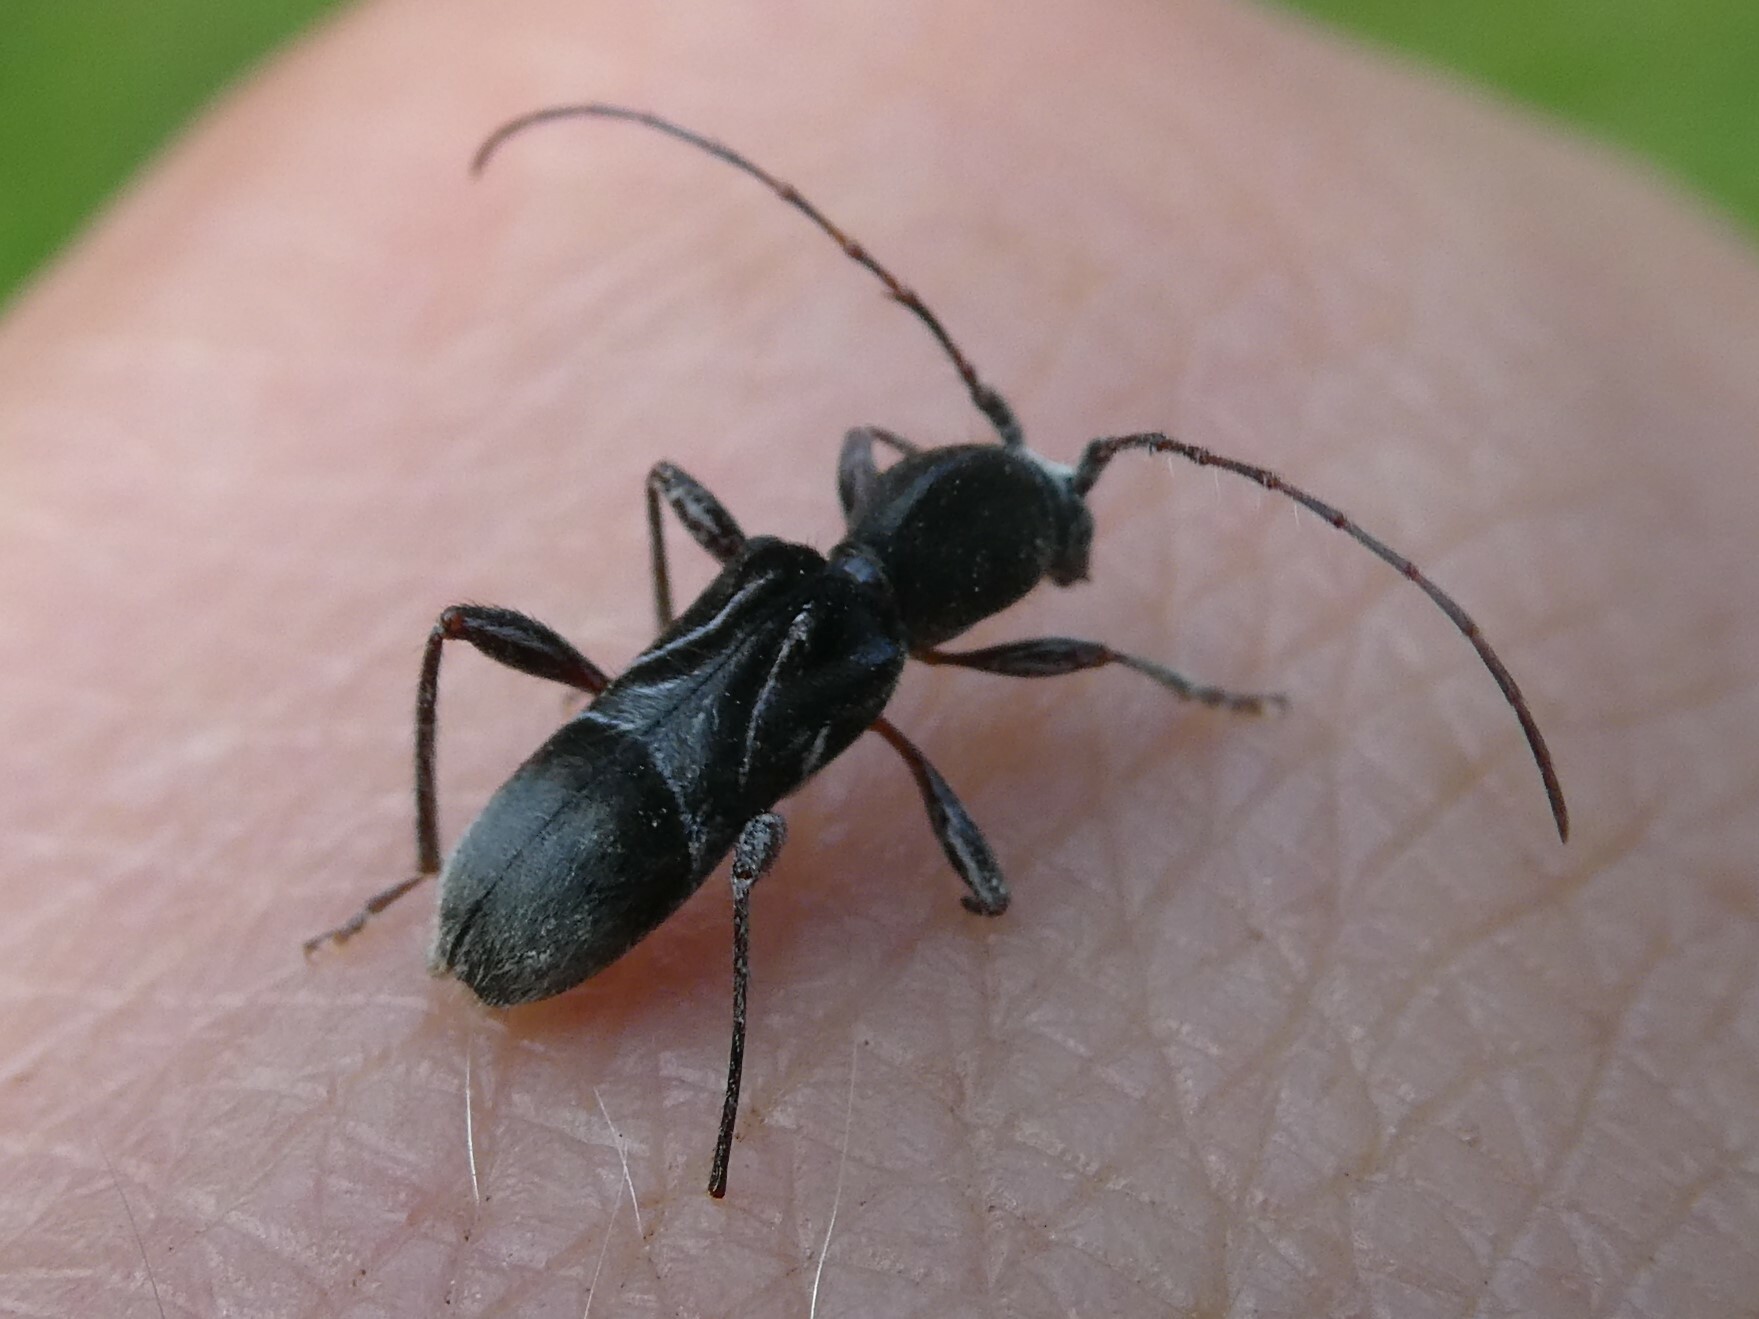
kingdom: Animalia
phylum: Arthropoda
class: Insecta
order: Coleoptera
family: Cerambycidae
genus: Cyrtophorus
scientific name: Cyrtophorus verrucosus
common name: Ant-like longhorn beetle
